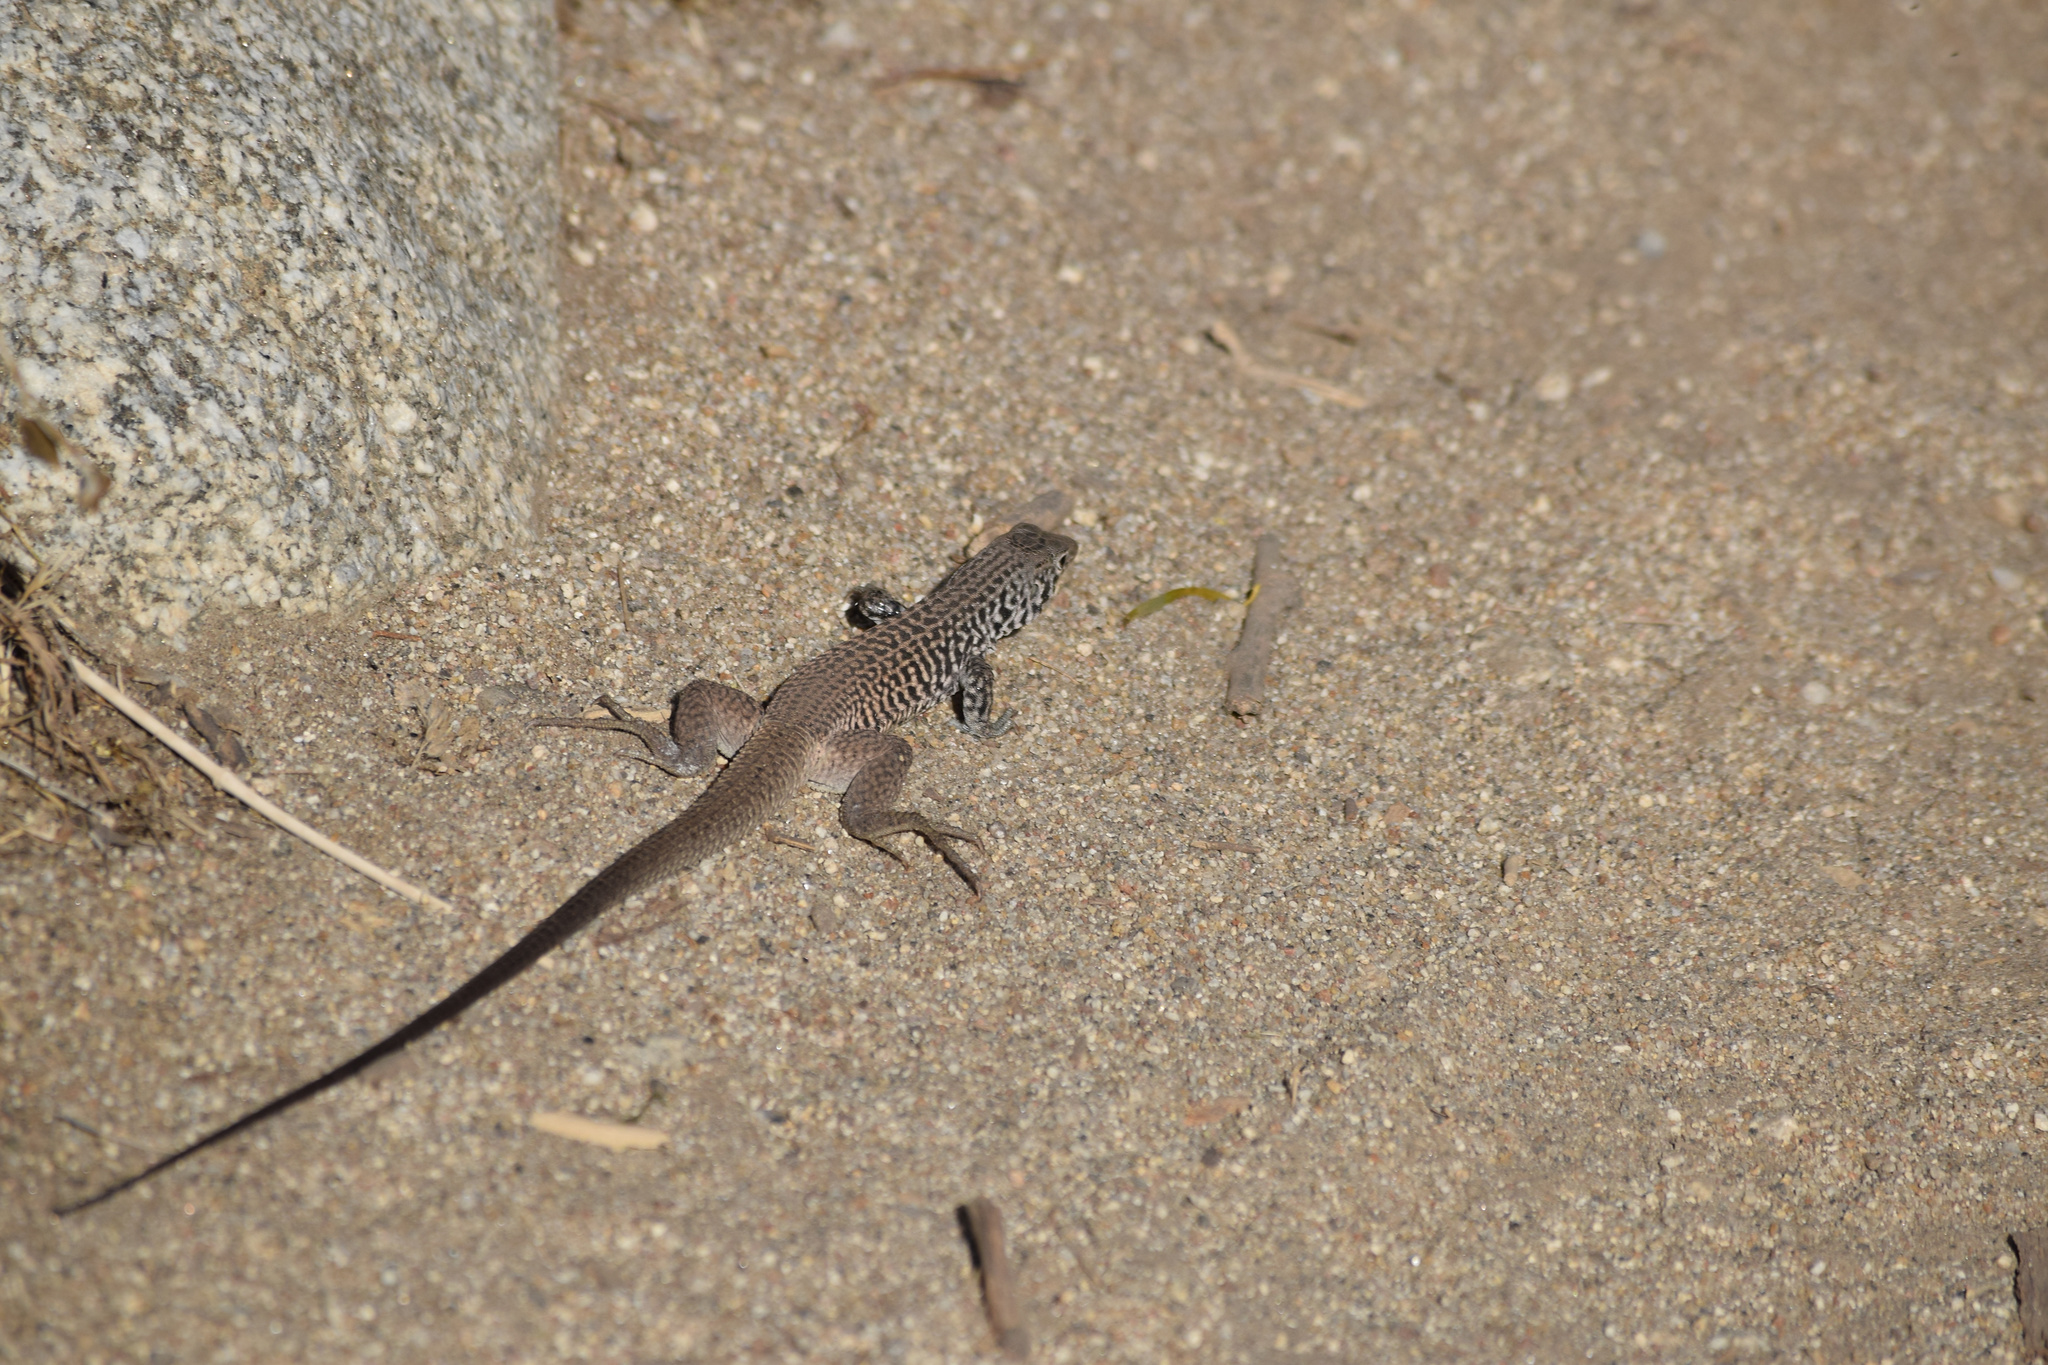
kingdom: Animalia
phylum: Chordata
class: Squamata
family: Teiidae
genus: Aspidoscelis
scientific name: Aspidoscelis tigris
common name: Tiger whiptail
